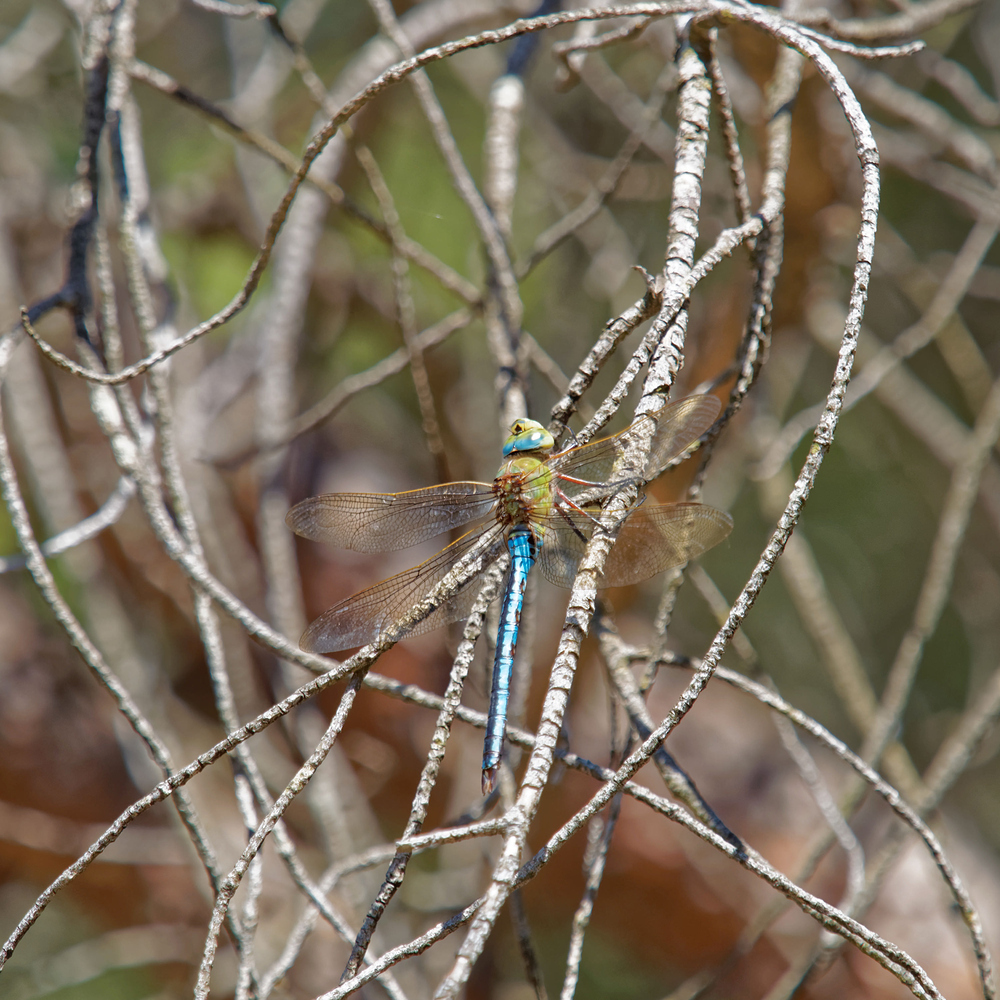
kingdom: Animalia
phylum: Arthropoda
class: Insecta
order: Odonata
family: Aeshnidae
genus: Anax
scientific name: Anax imperator
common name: Emperor dragonfly
